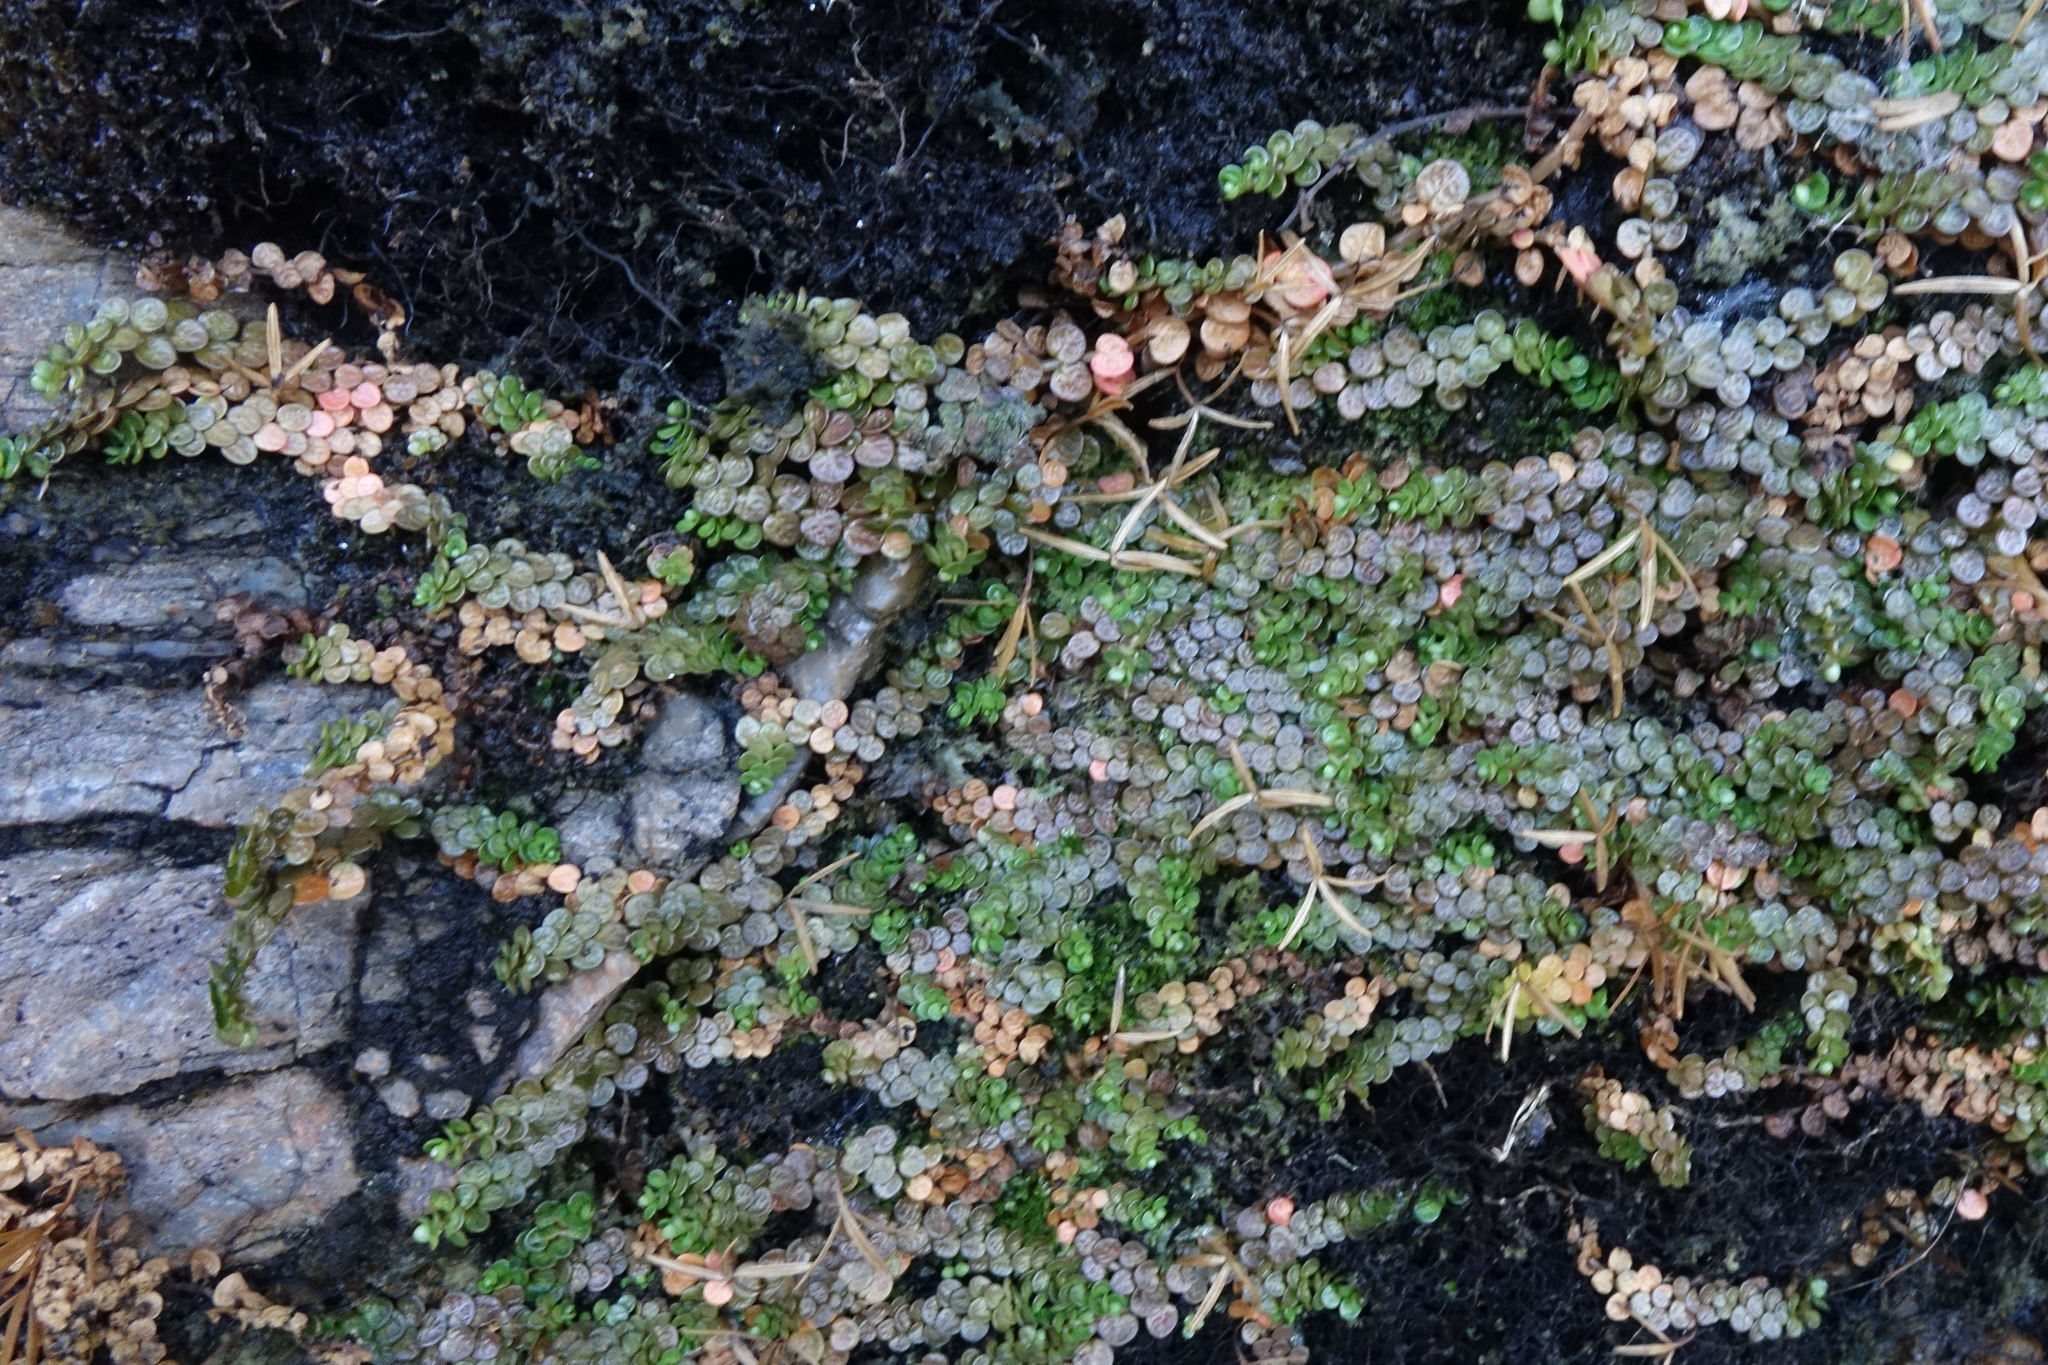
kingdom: Plantae
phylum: Tracheophyta
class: Magnoliopsida
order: Myrtales
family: Onagraceae
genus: Epilobium
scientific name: Epilobium komarovianum
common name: Bronzy willowherb
